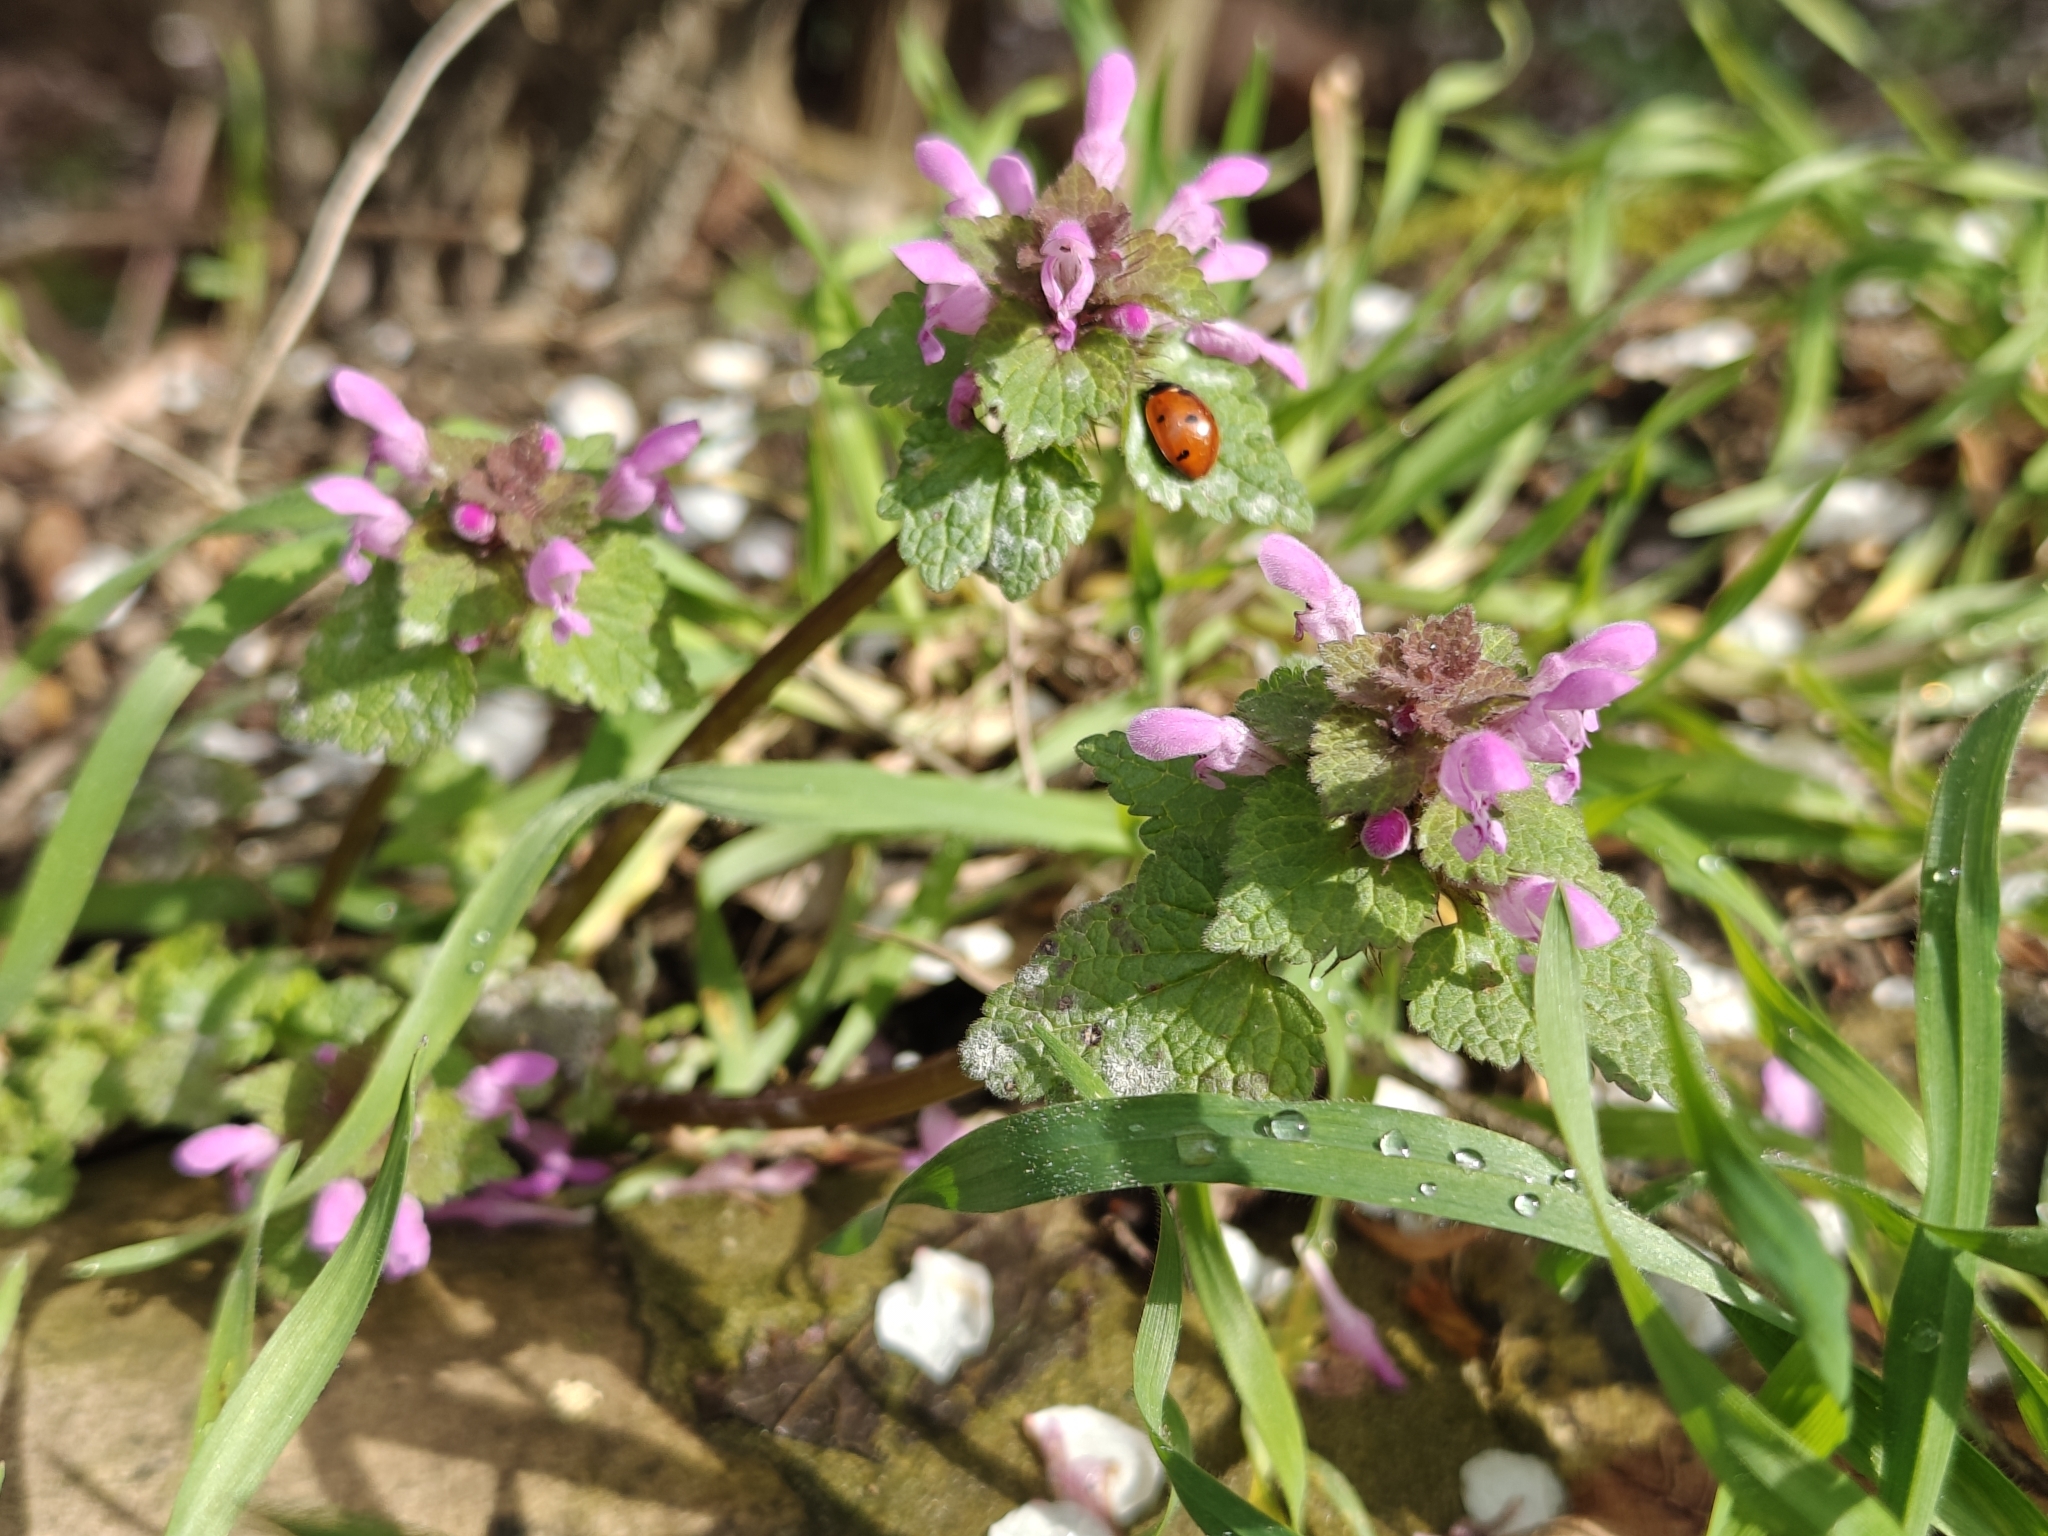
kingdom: Plantae
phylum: Tracheophyta
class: Magnoliopsida
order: Lamiales
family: Lamiaceae
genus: Lamium
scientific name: Lamium purpureum
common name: Red dead-nettle
